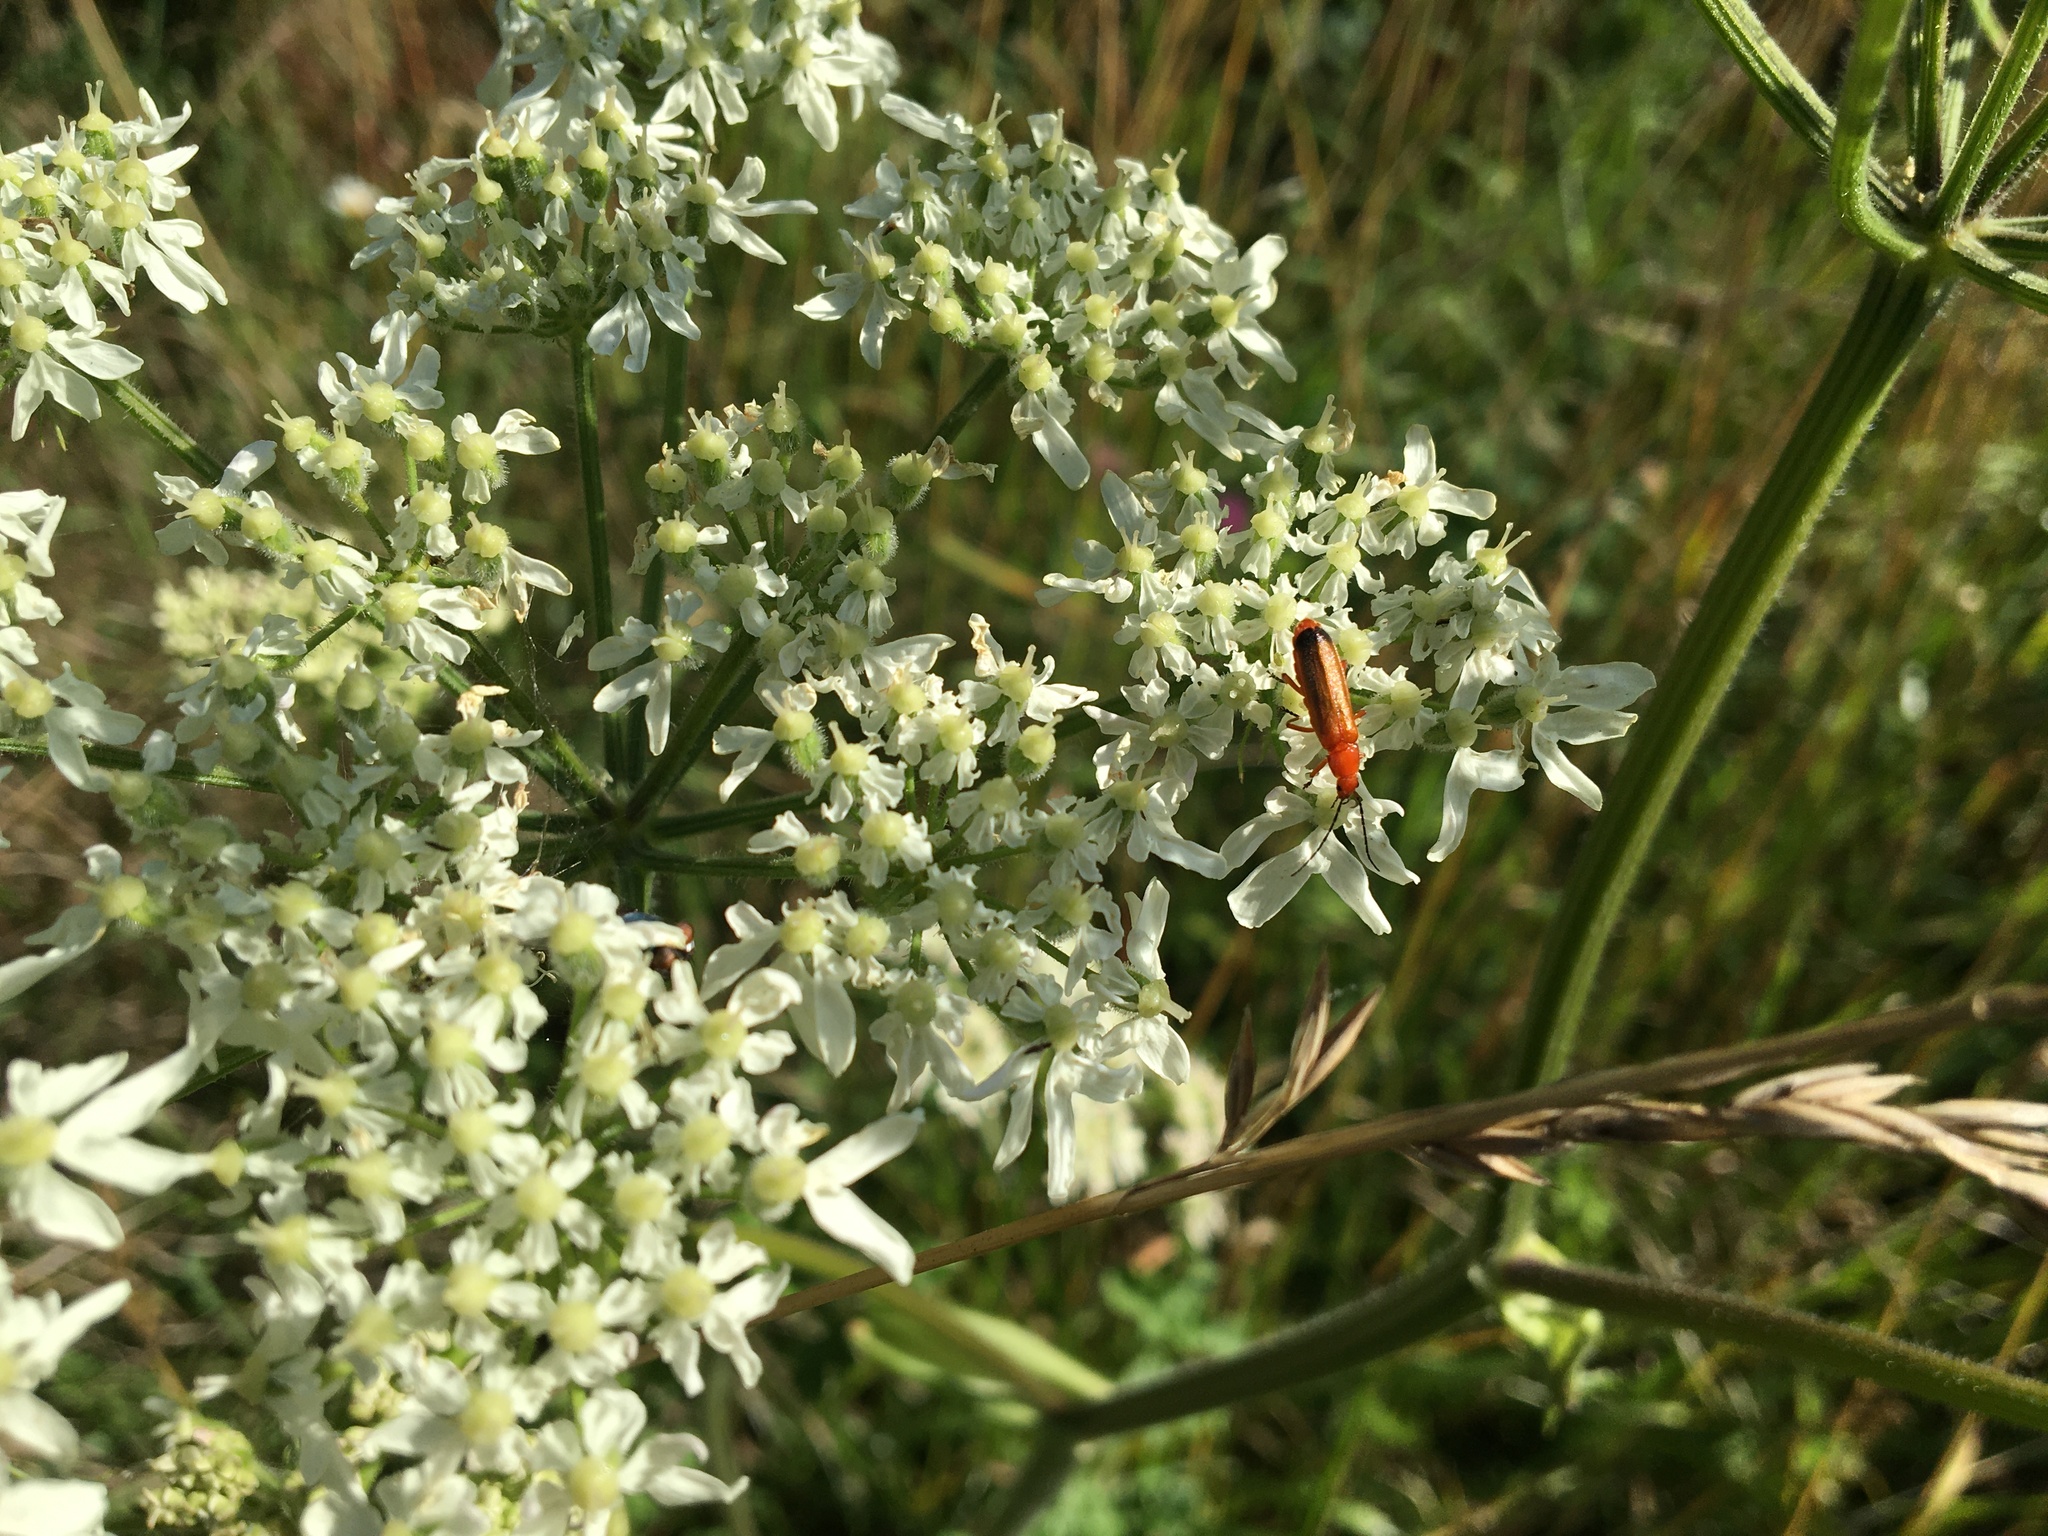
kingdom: Animalia
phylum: Arthropoda
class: Insecta
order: Coleoptera
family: Cantharidae
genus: Rhagonycha
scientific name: Rhagonycha fulva
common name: Common red soldier beetle
